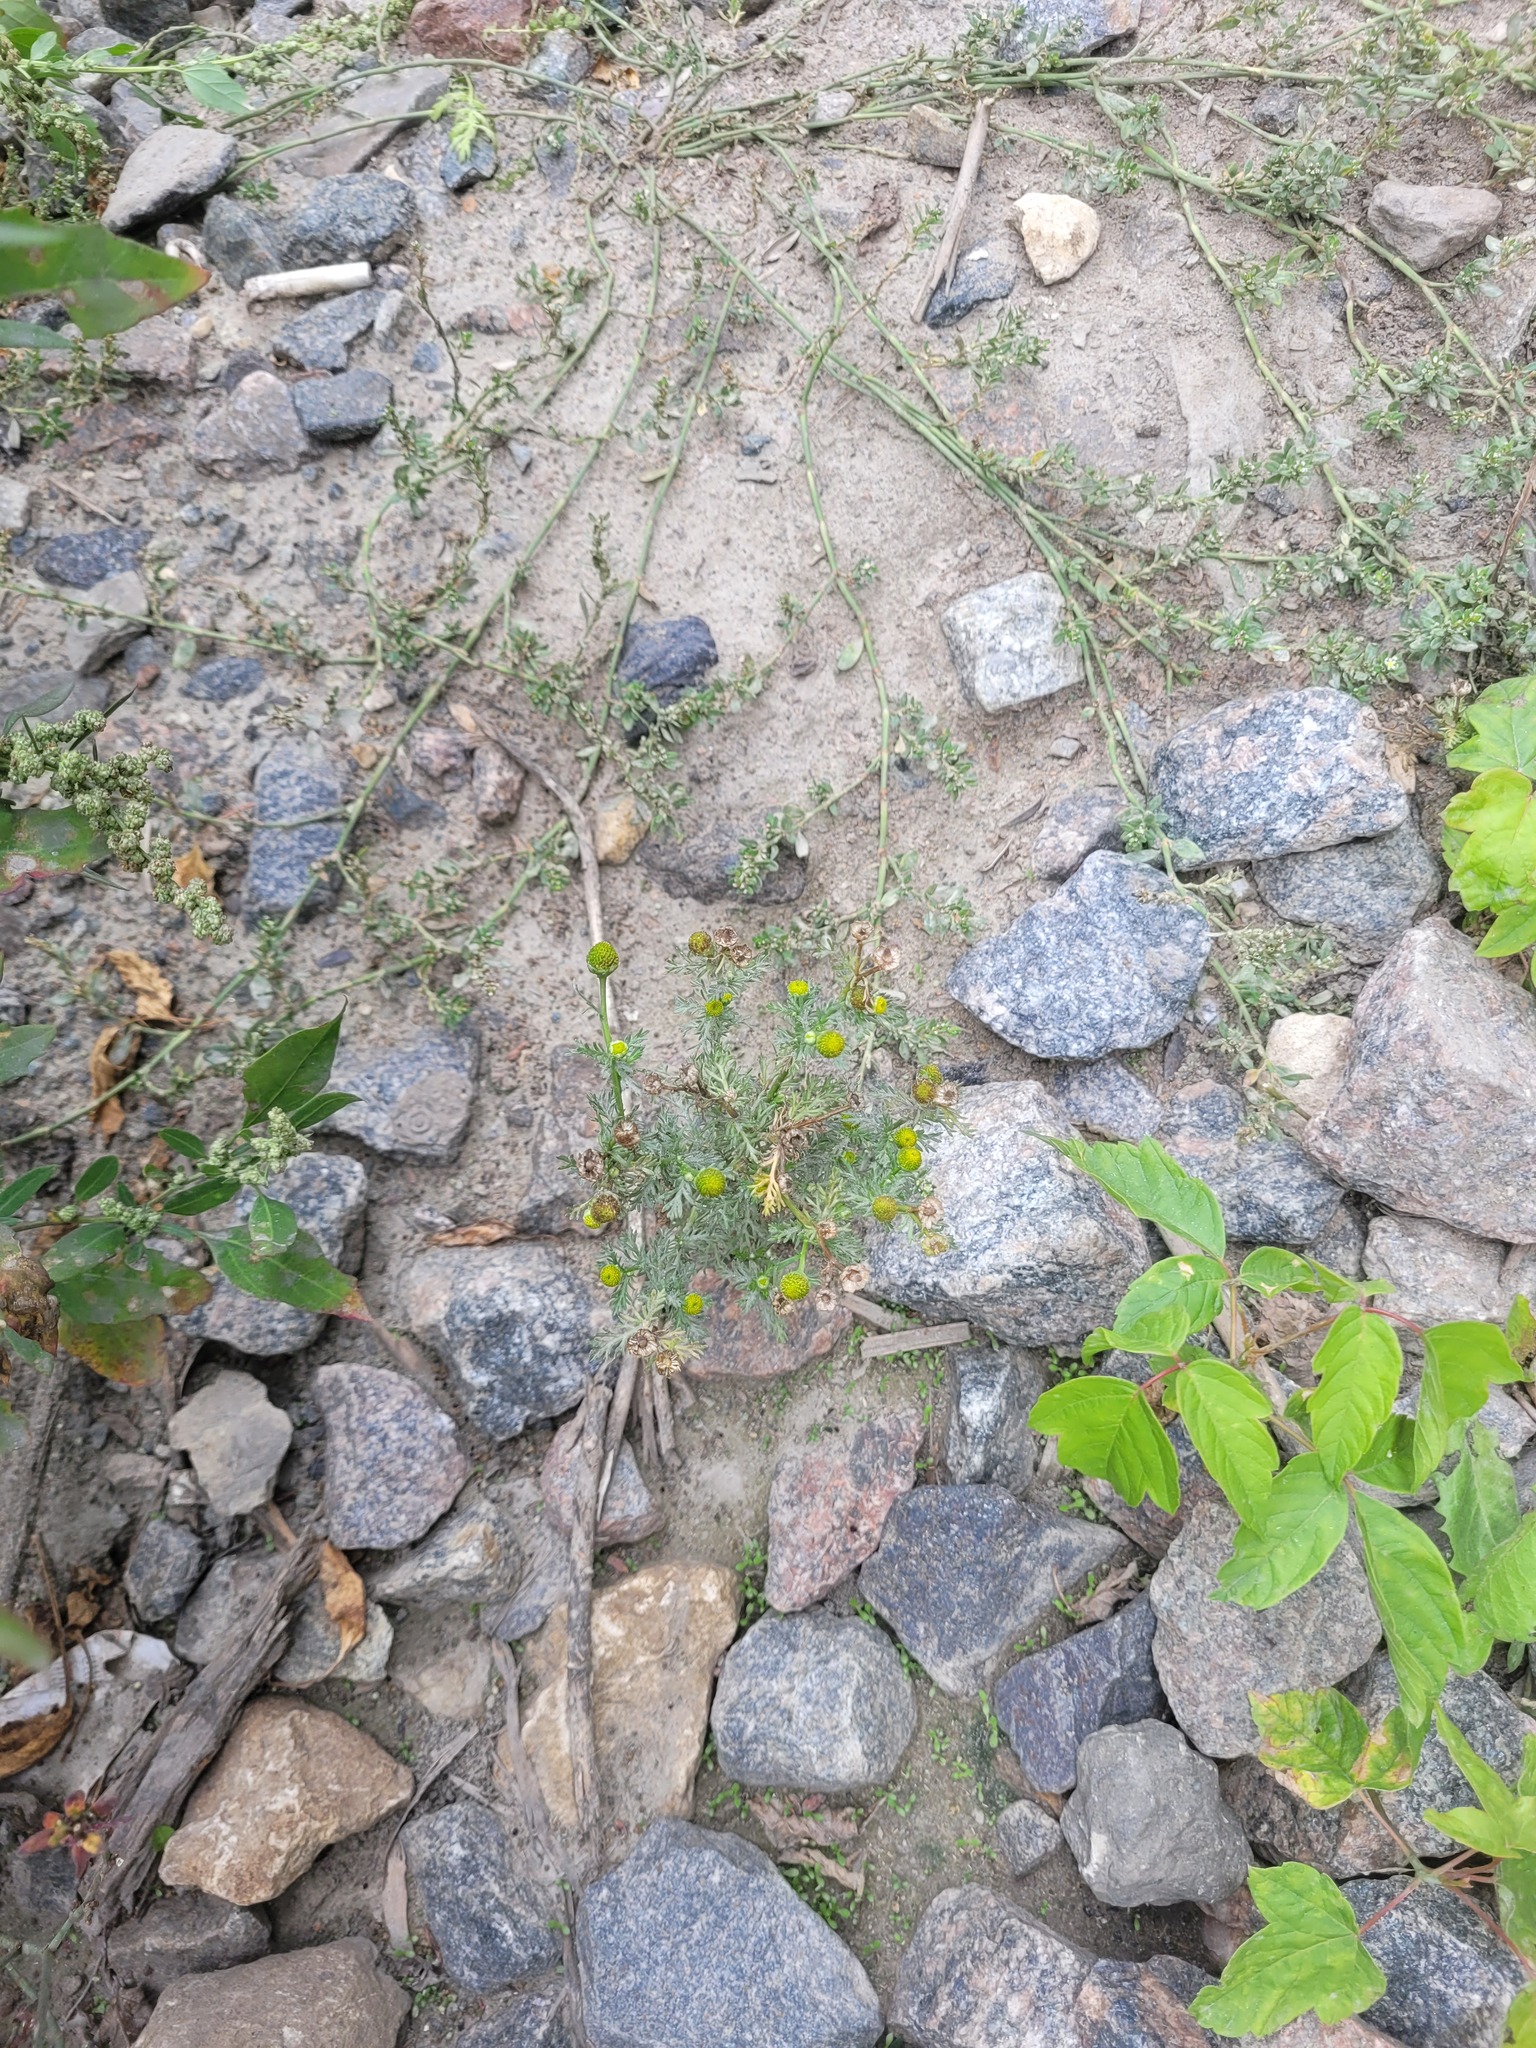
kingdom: Plantae
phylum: Tracheophyta
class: Magnoliopsida
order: Asterales
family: Asteraceae
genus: Matricaria
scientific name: Matricaria discoidea
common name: Disc mayweed
